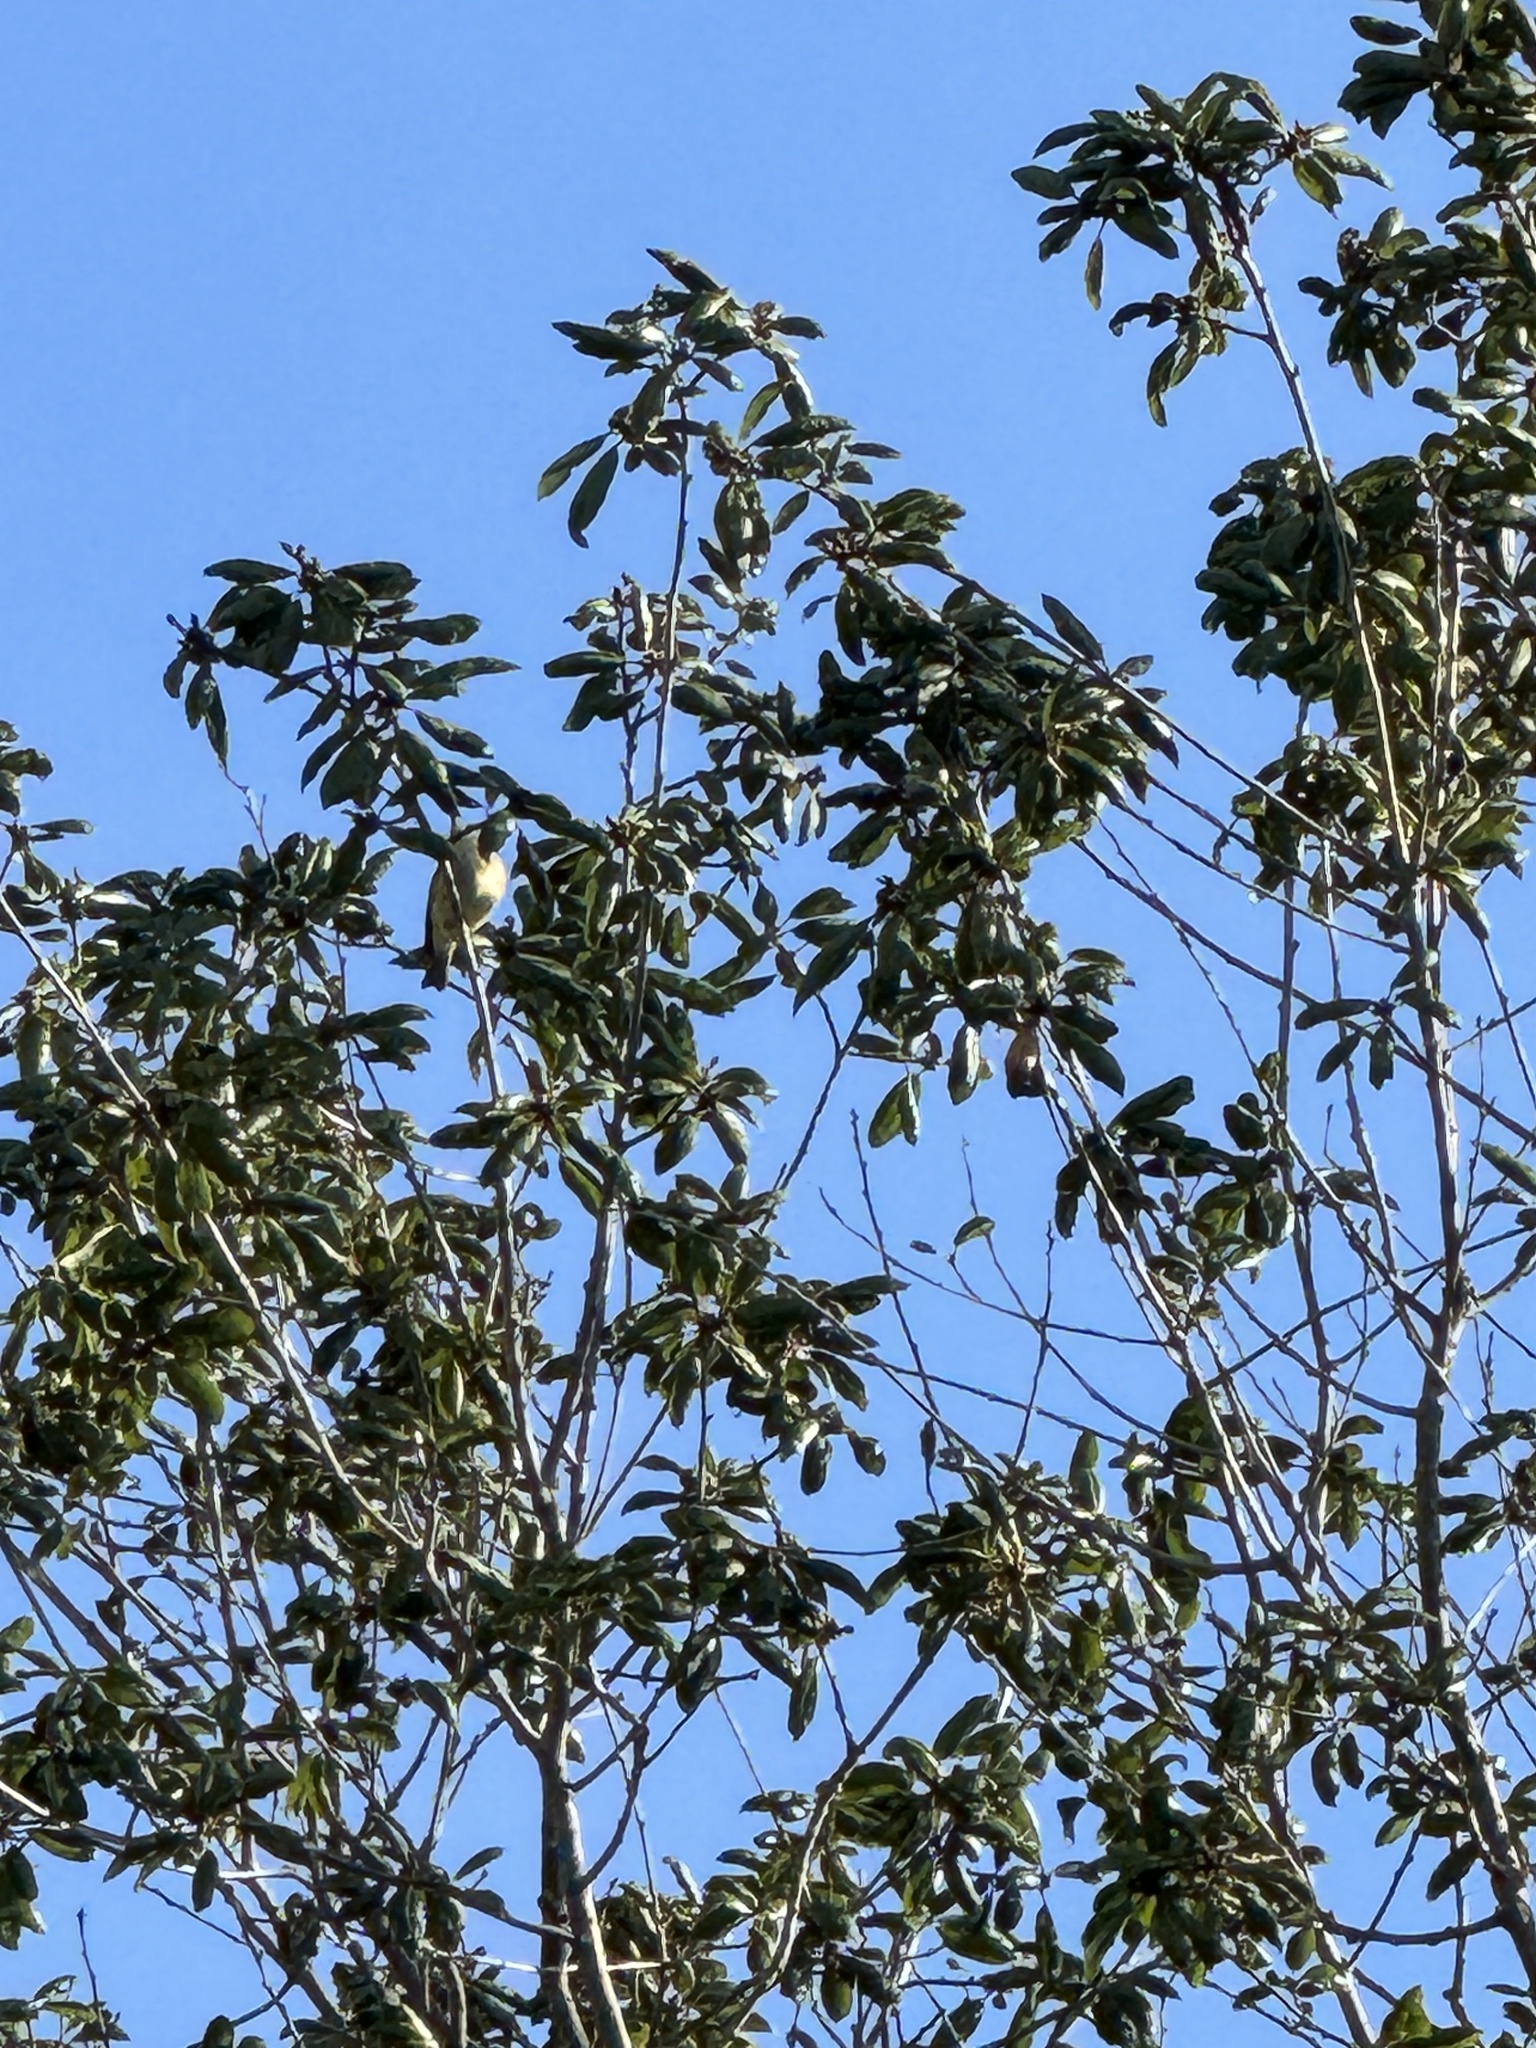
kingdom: Animalia
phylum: Chordata
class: Aves
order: Passeriformes
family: Regulidae
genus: Regulus
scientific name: Regulus calendula
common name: Ruby-crowned kinglet
